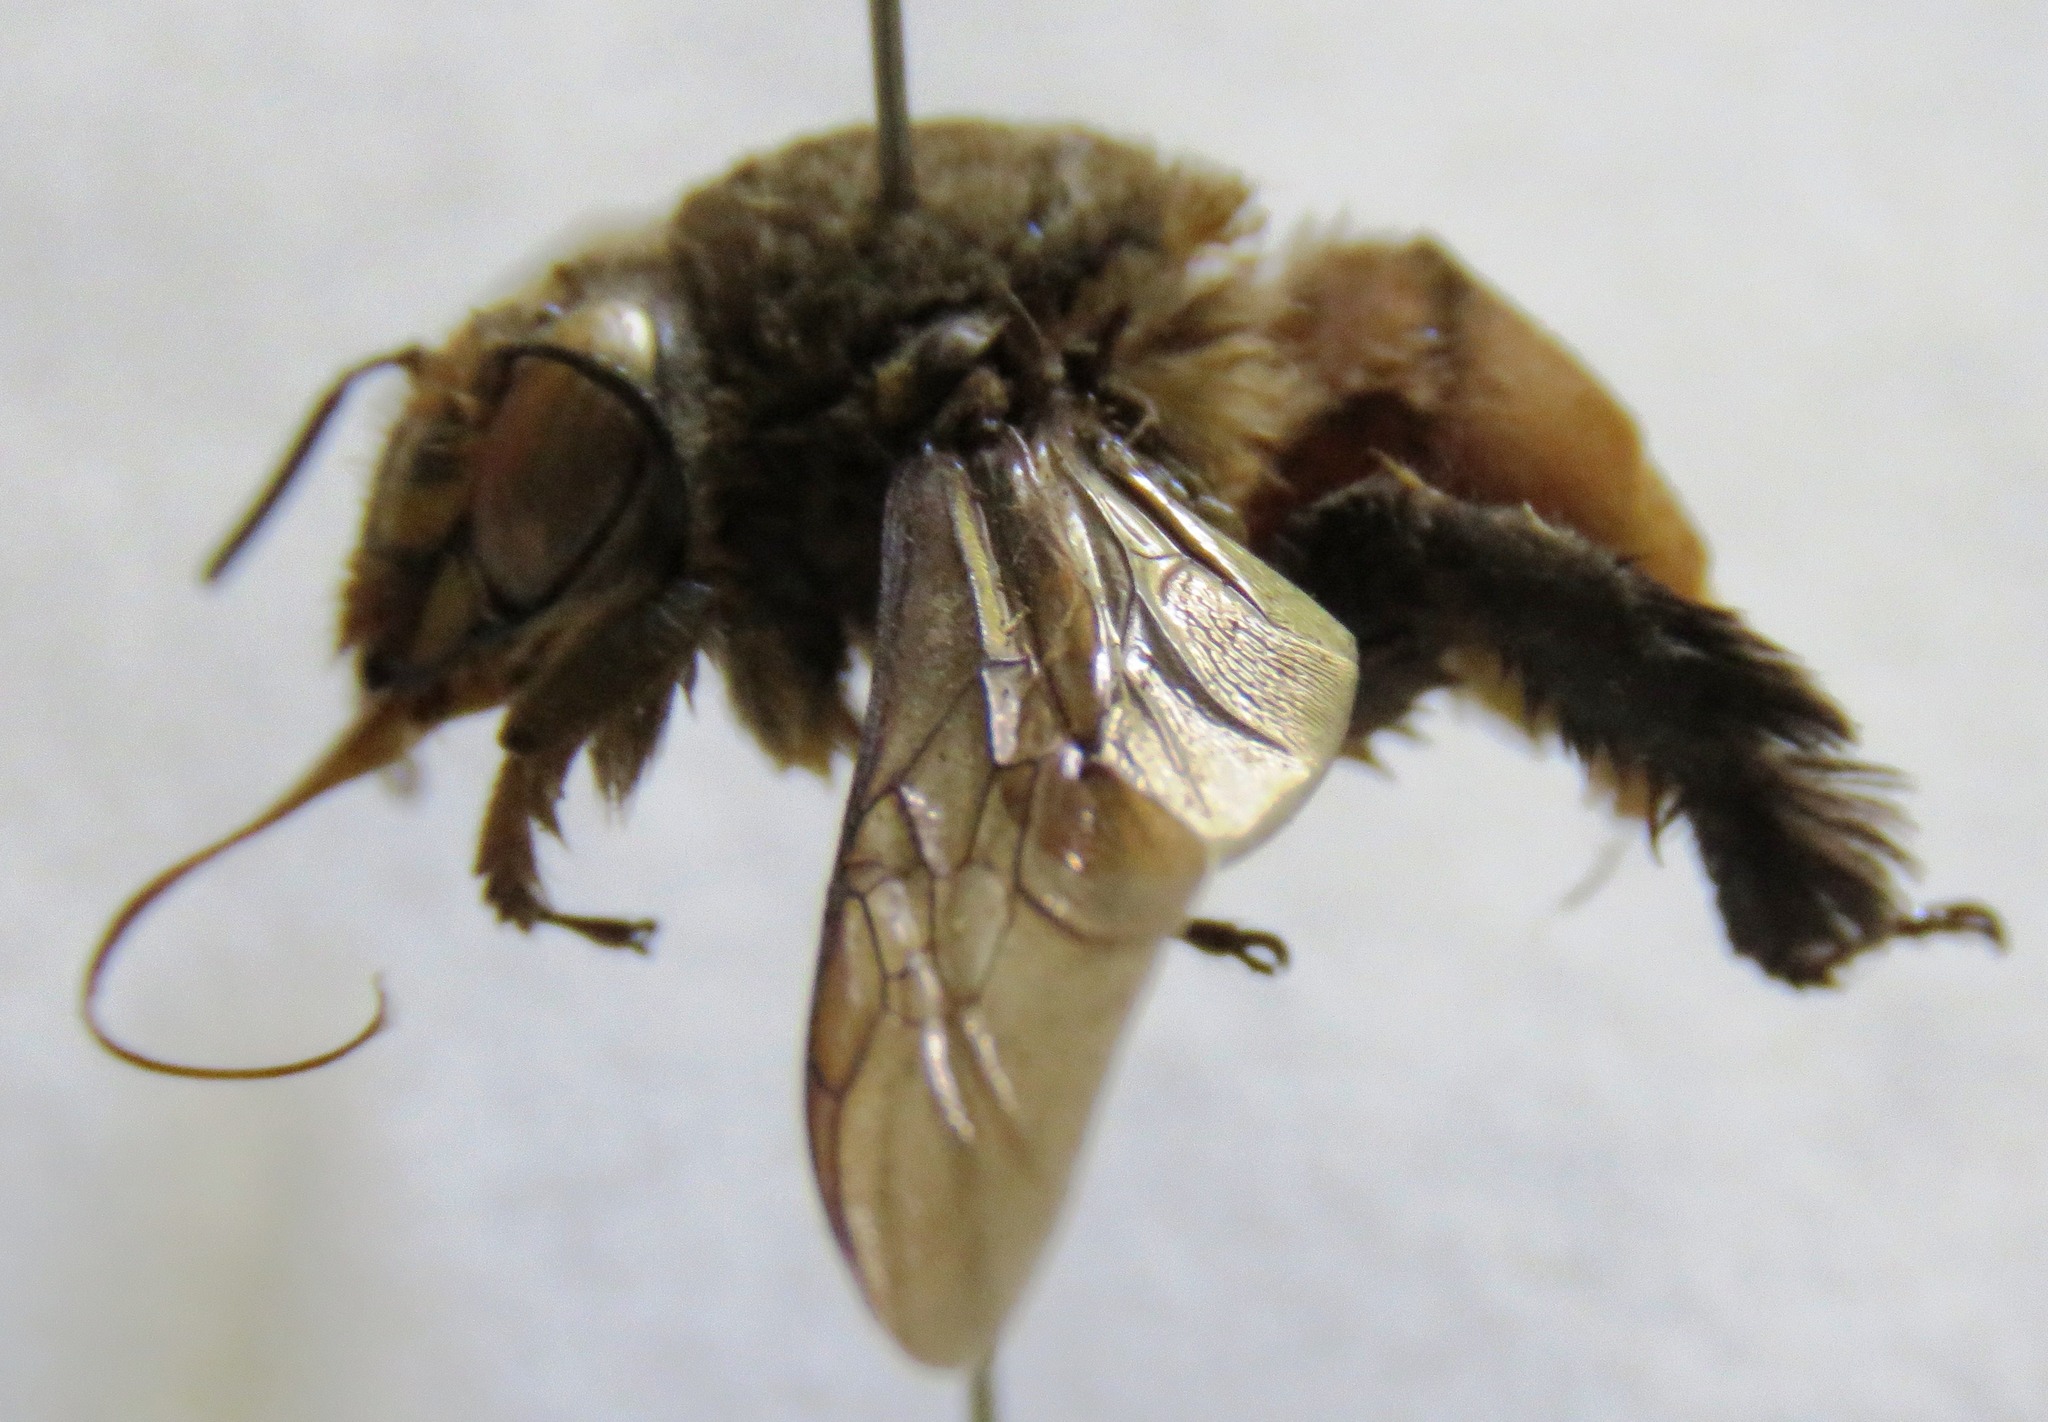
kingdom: Animalia
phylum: Arthropoda
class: Insecta
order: Hymenoptera
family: Apidae
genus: Centris
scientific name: Centris longimana
